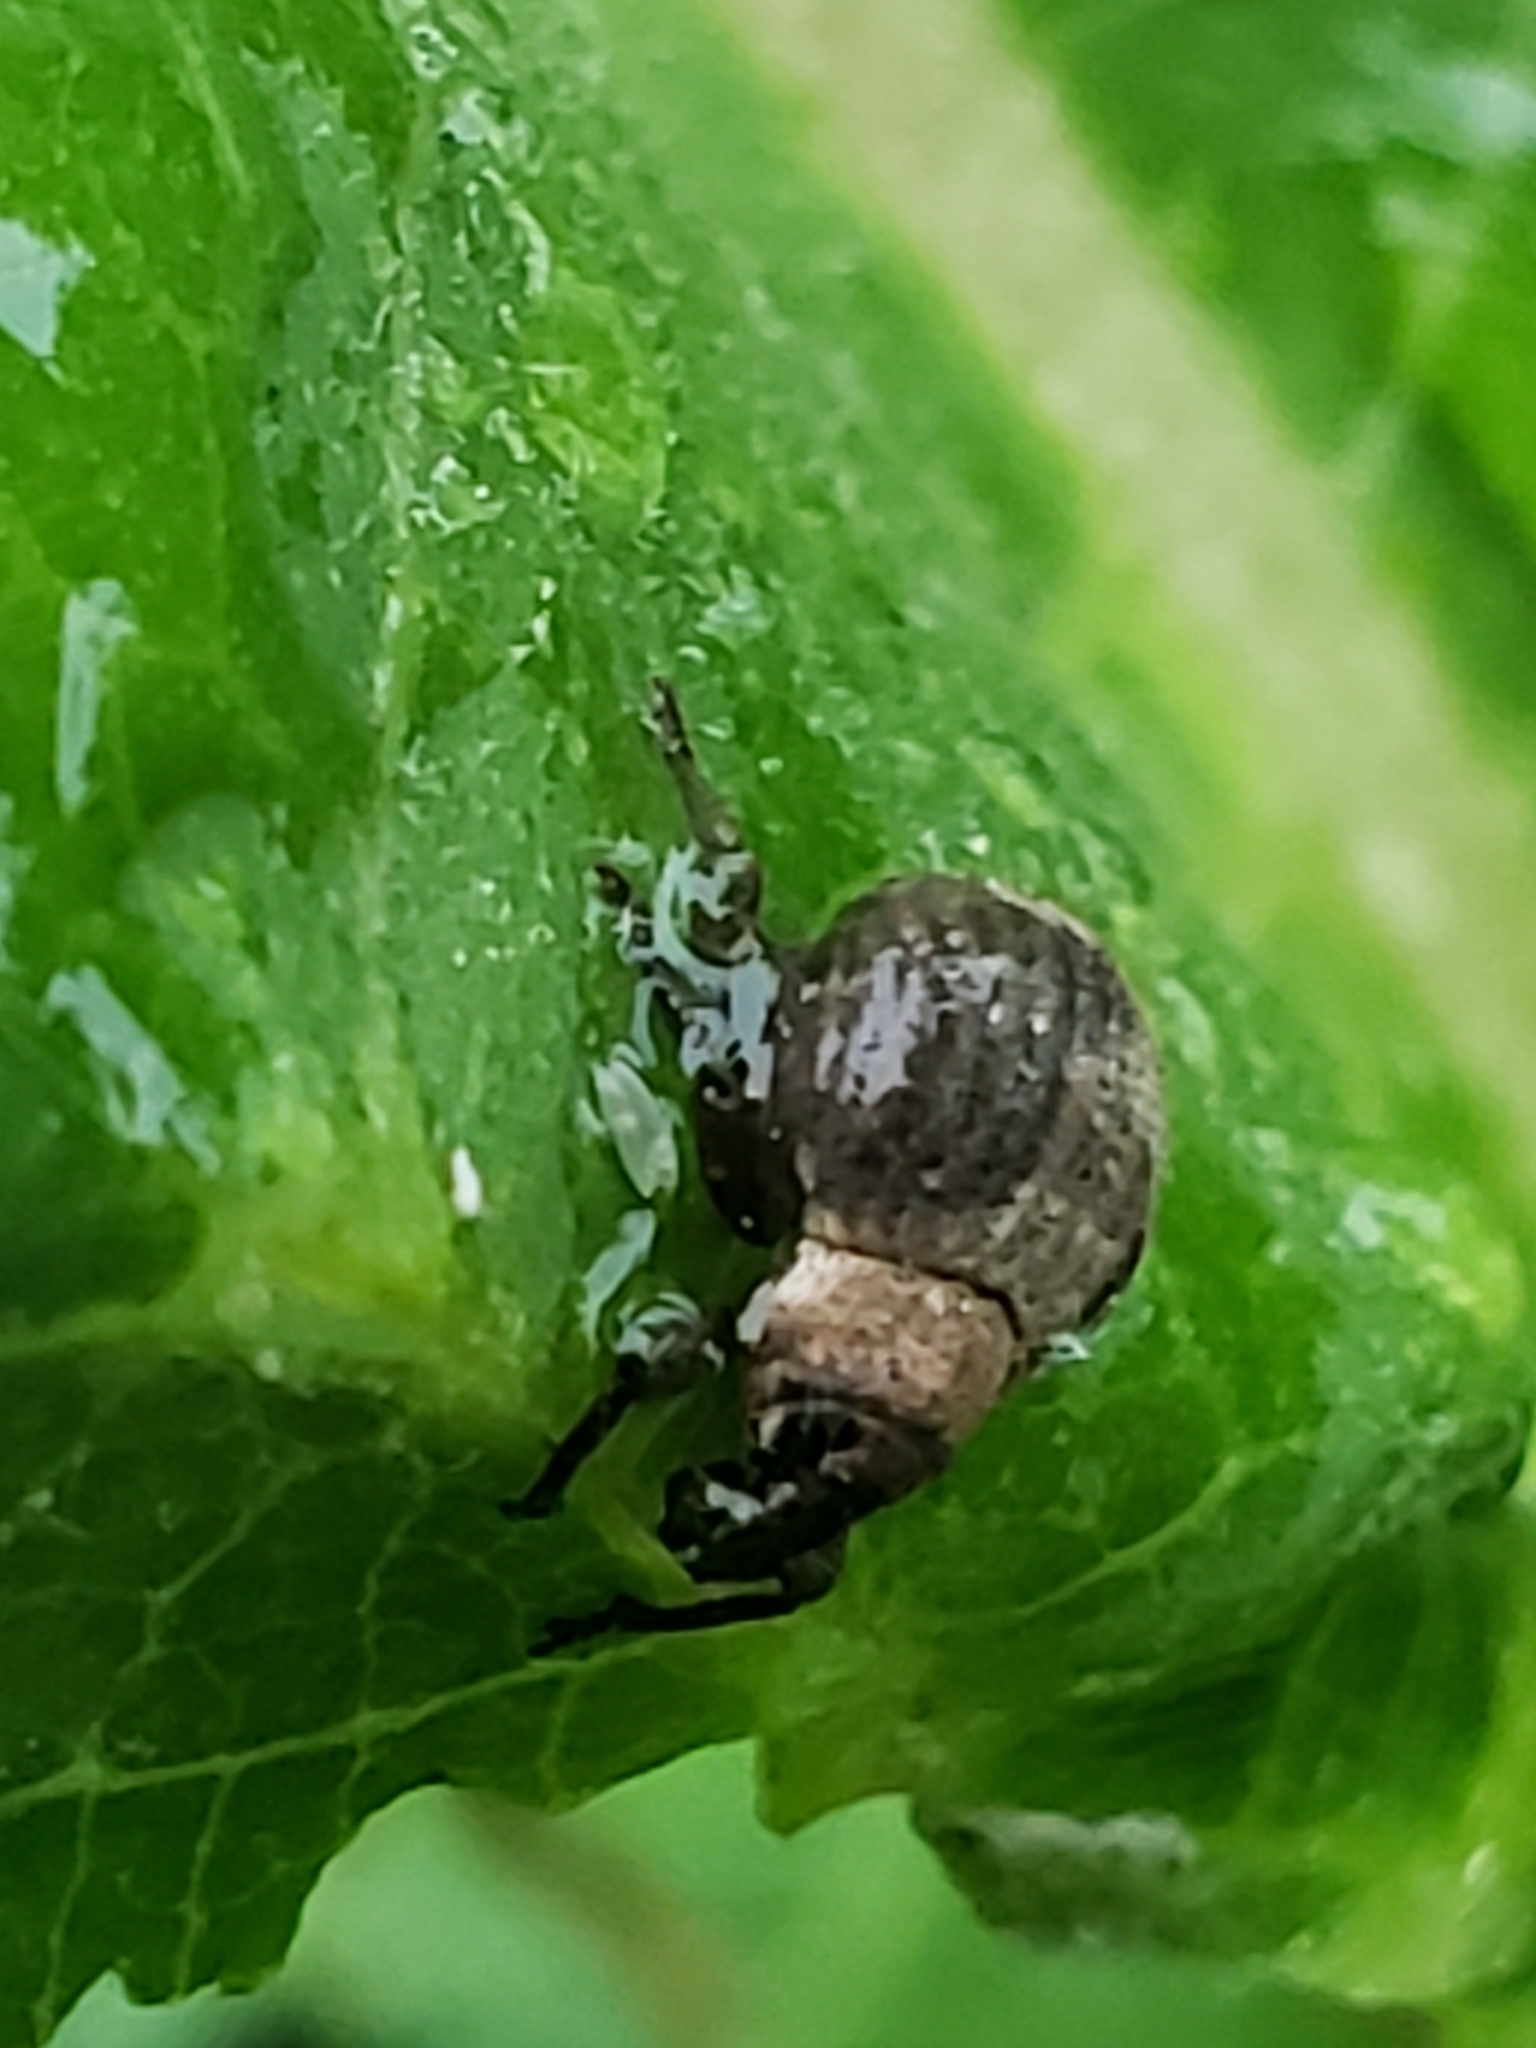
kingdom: Animalia
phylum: Arthropoda
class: Insecta
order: Coleoptera
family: Curculionidae
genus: Pseudocneorhinus
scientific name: Pseudocneorhinus bifasciatus
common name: Two-banded japanese weevil
